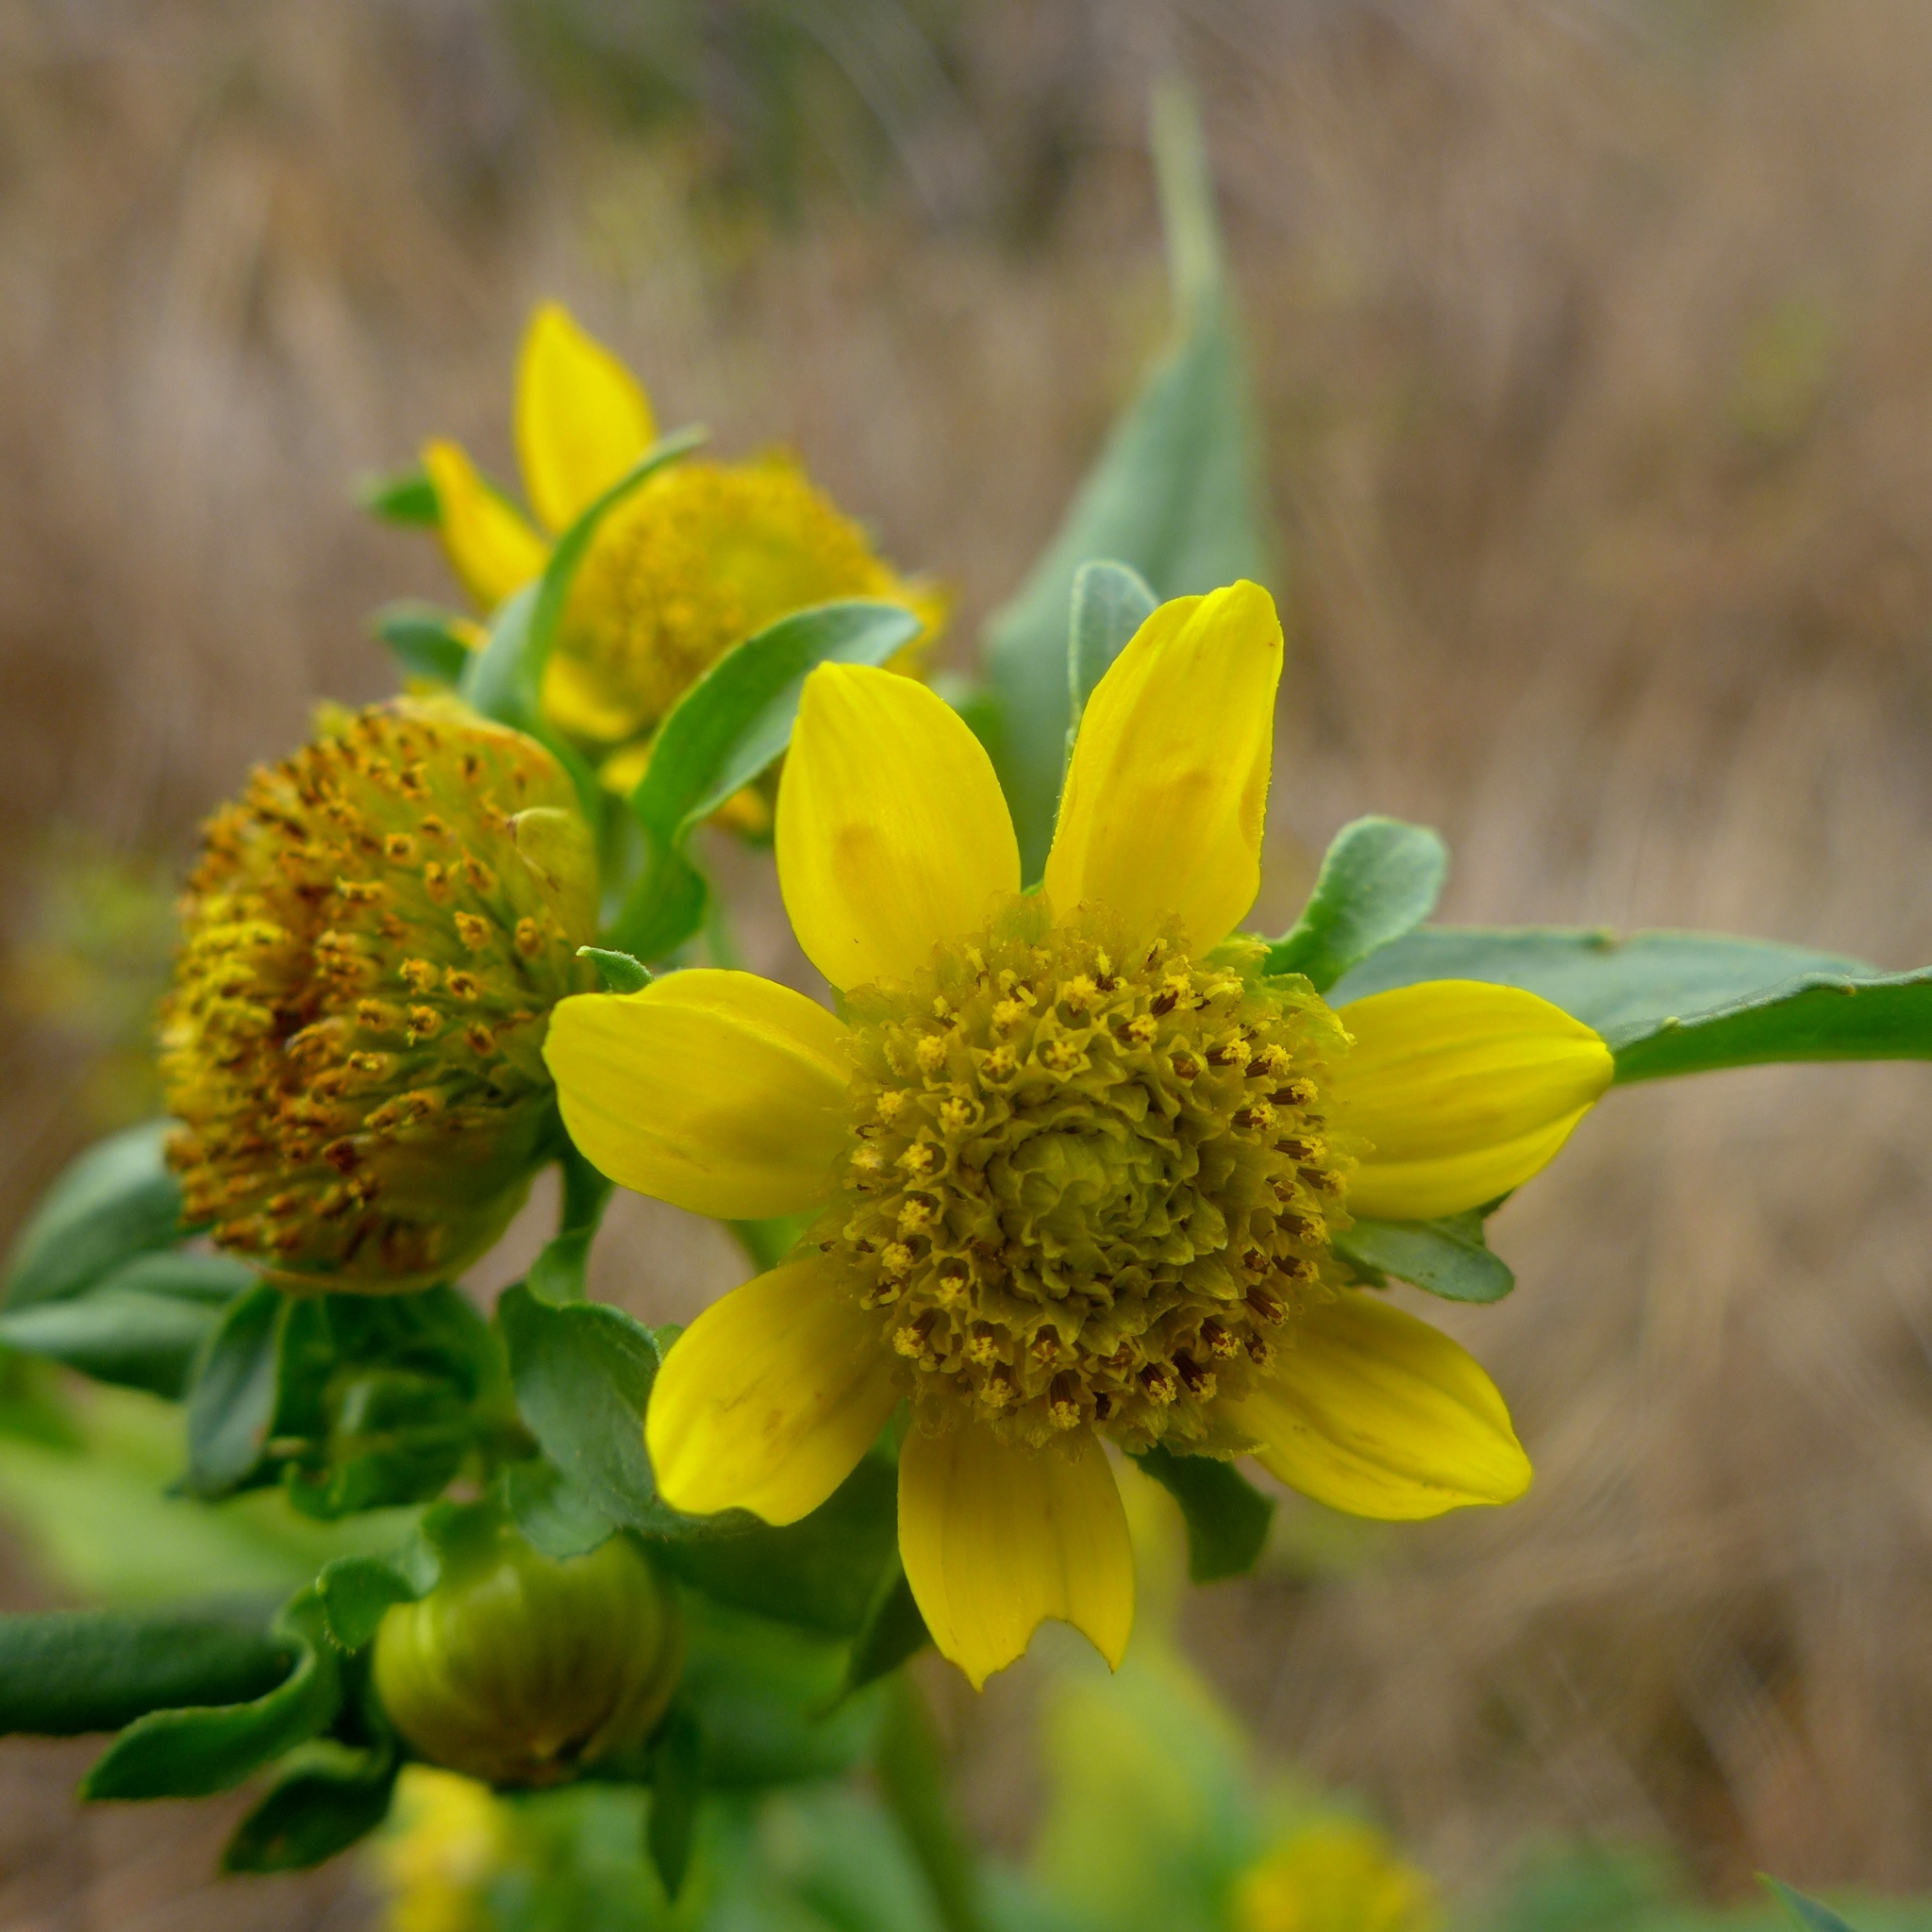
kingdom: Plantae
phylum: Tracheophyta
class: Magnoliopsida
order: Asterales
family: Asteraceae
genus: Bidens
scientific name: Bidens cernua
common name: Nodding bur-marigold
